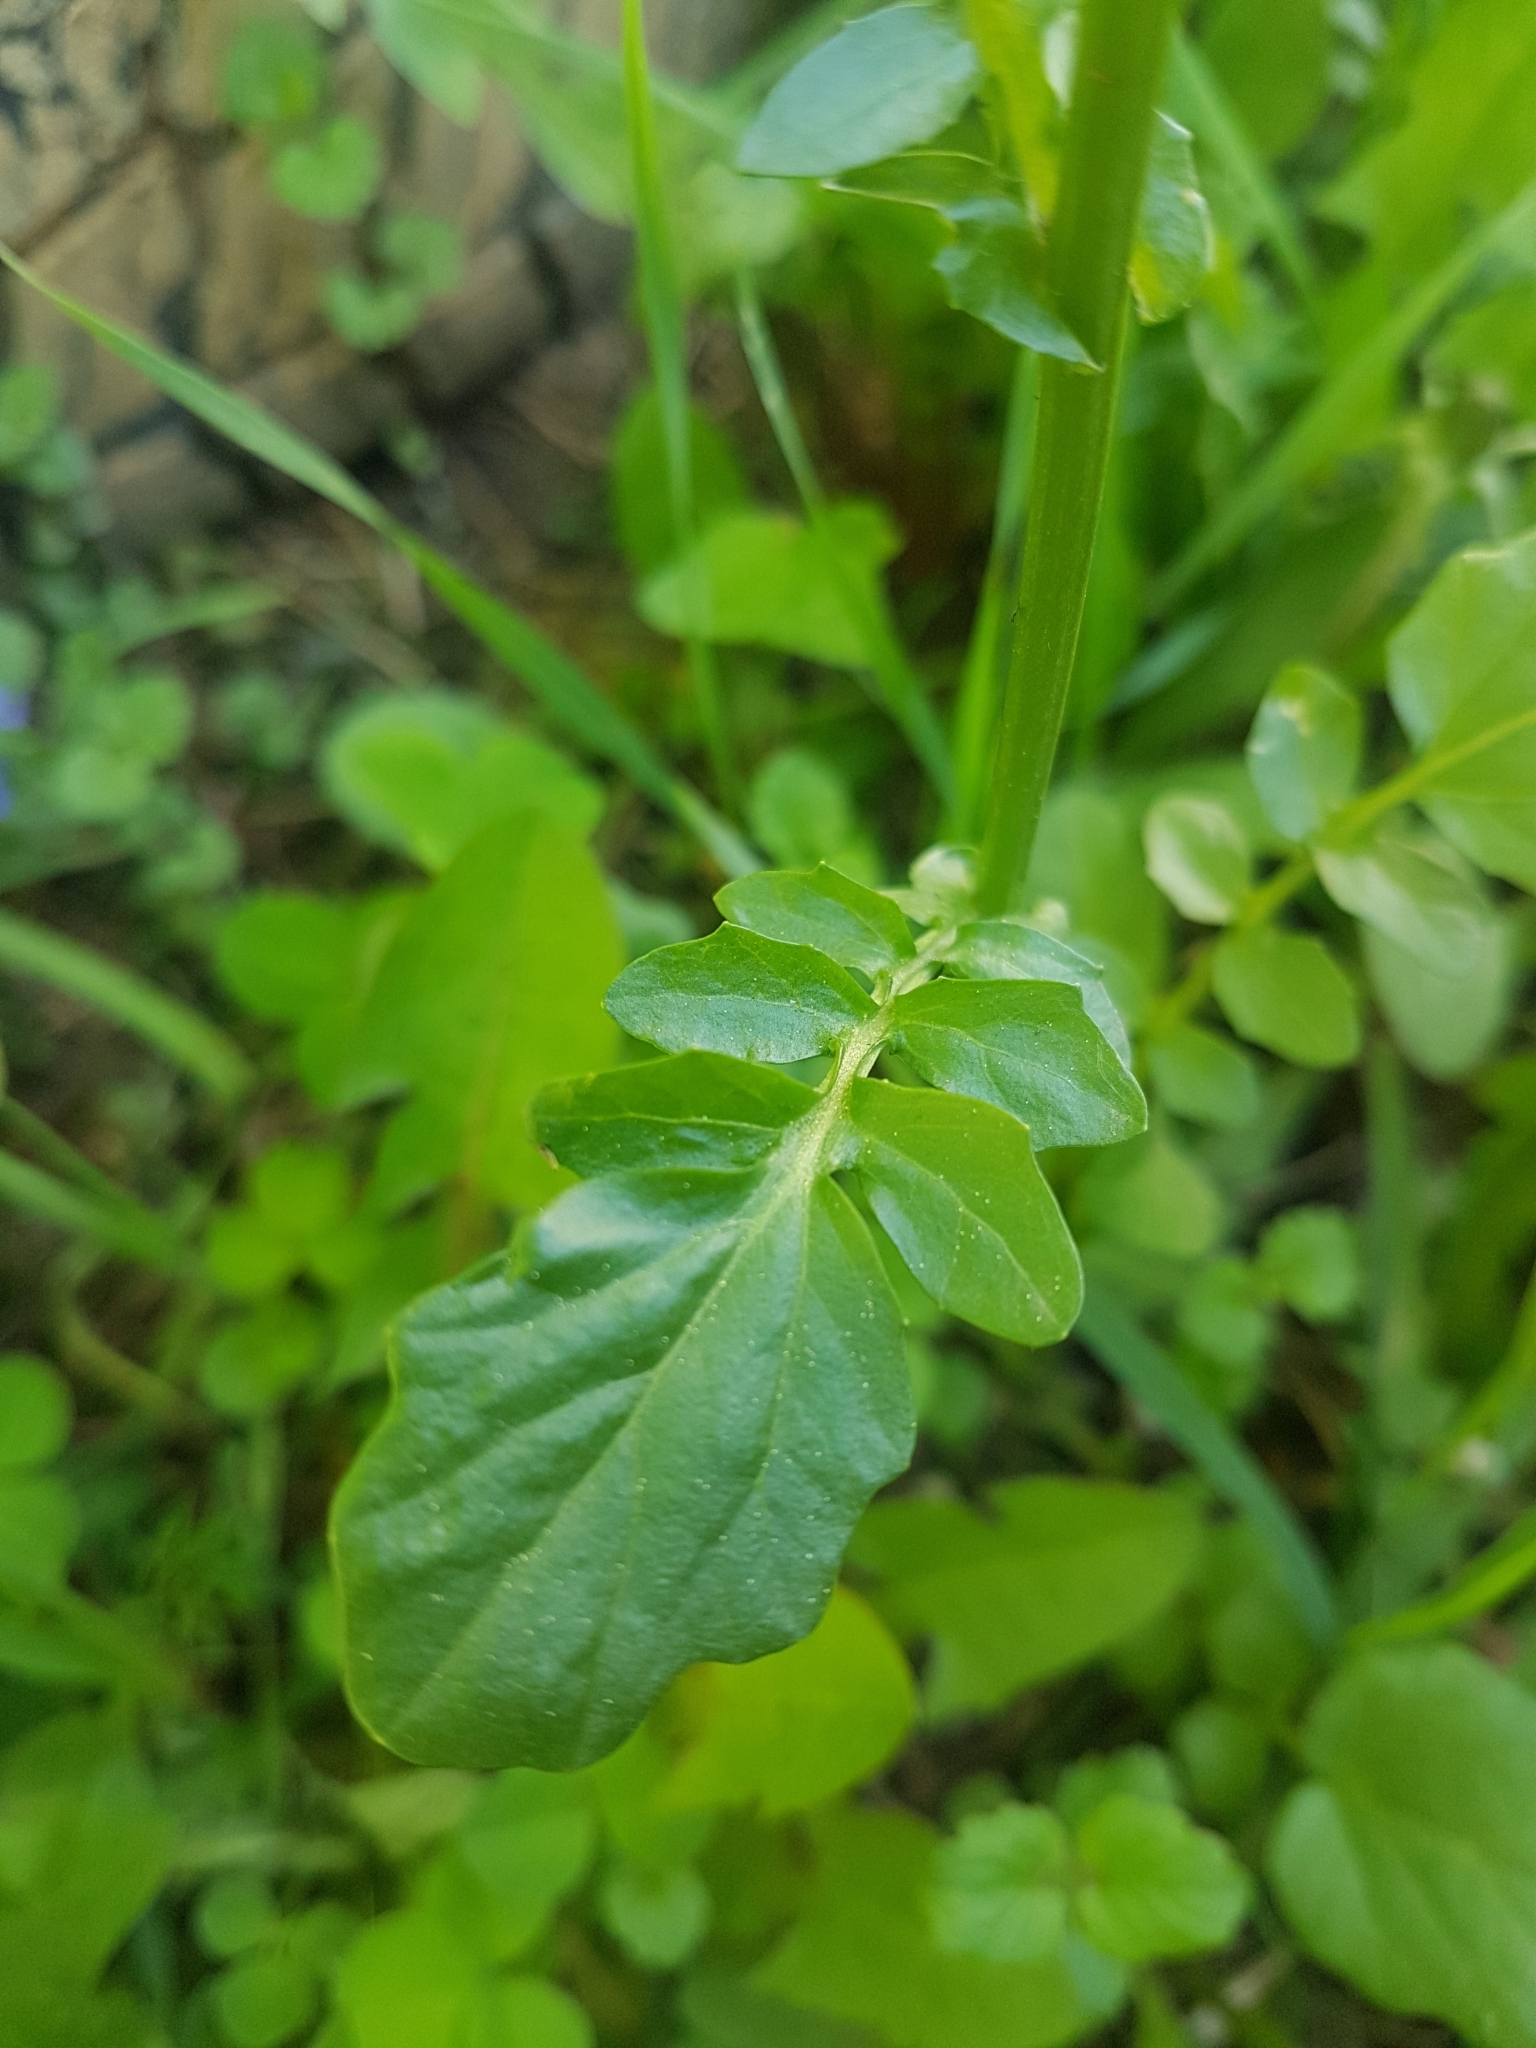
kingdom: Plantae
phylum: Tracheophyta
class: Magnoliopsida
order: Brassicales
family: Brassicaceae
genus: Barbarea
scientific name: Barbarea vulgaris
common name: Cressy-greens
